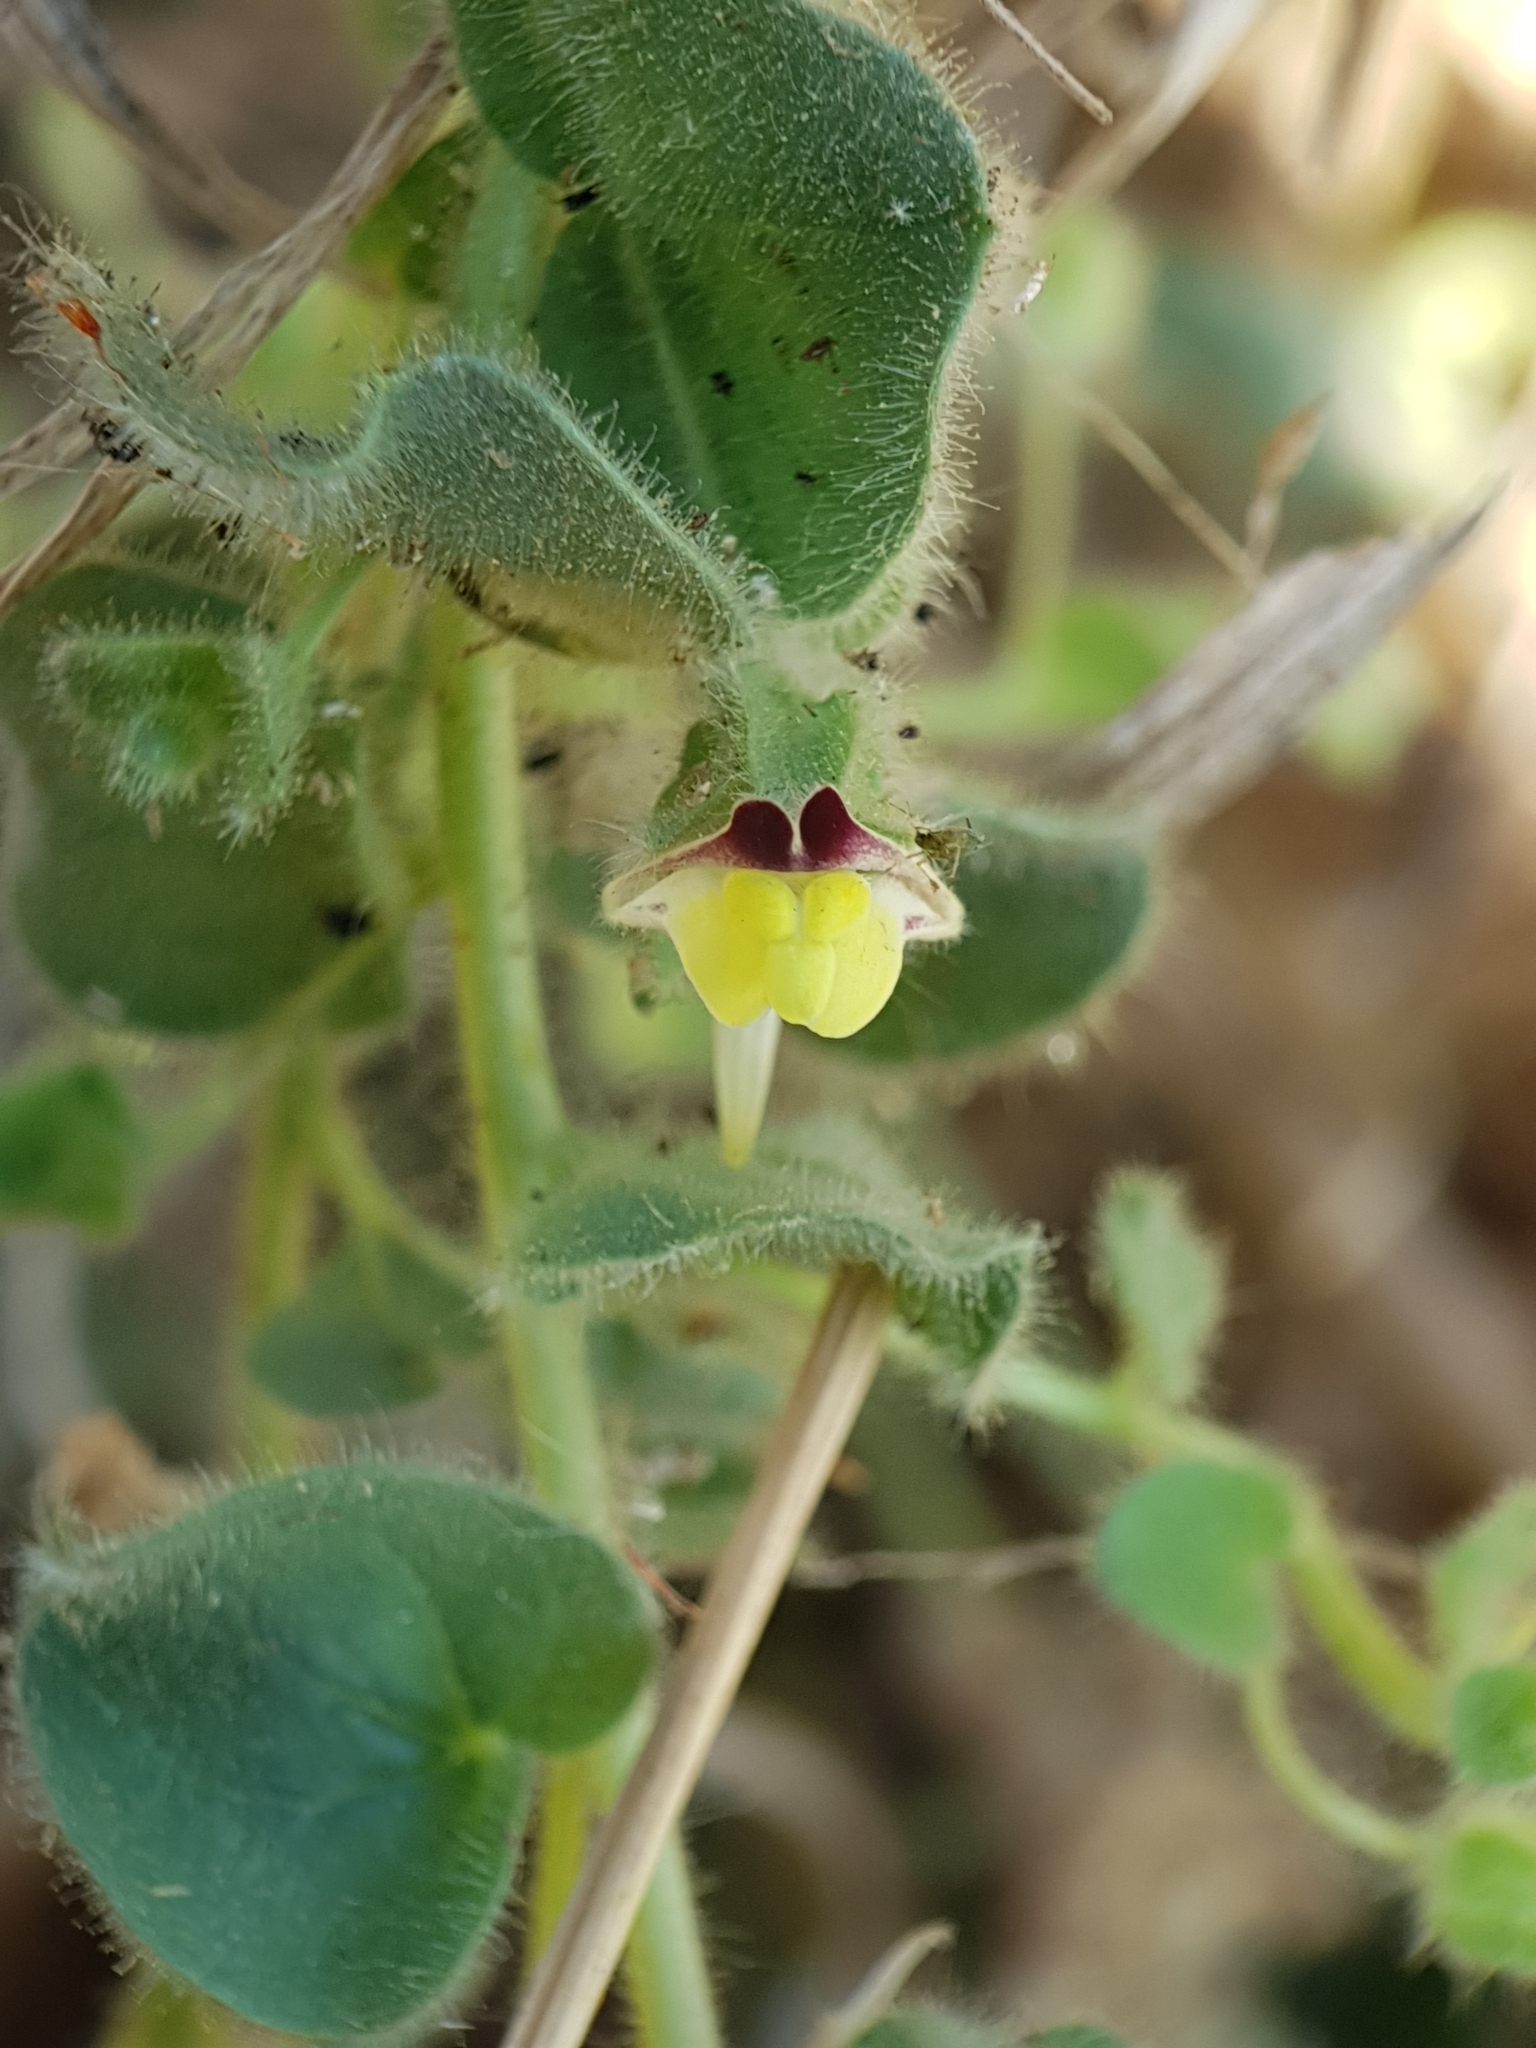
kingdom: Plantae
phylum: Tracheophyta
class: Magnoliopsida
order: Lamiales
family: Plantaginaceae
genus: Kickxia
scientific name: Kickxia spuria
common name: Round-leaved fluellen
